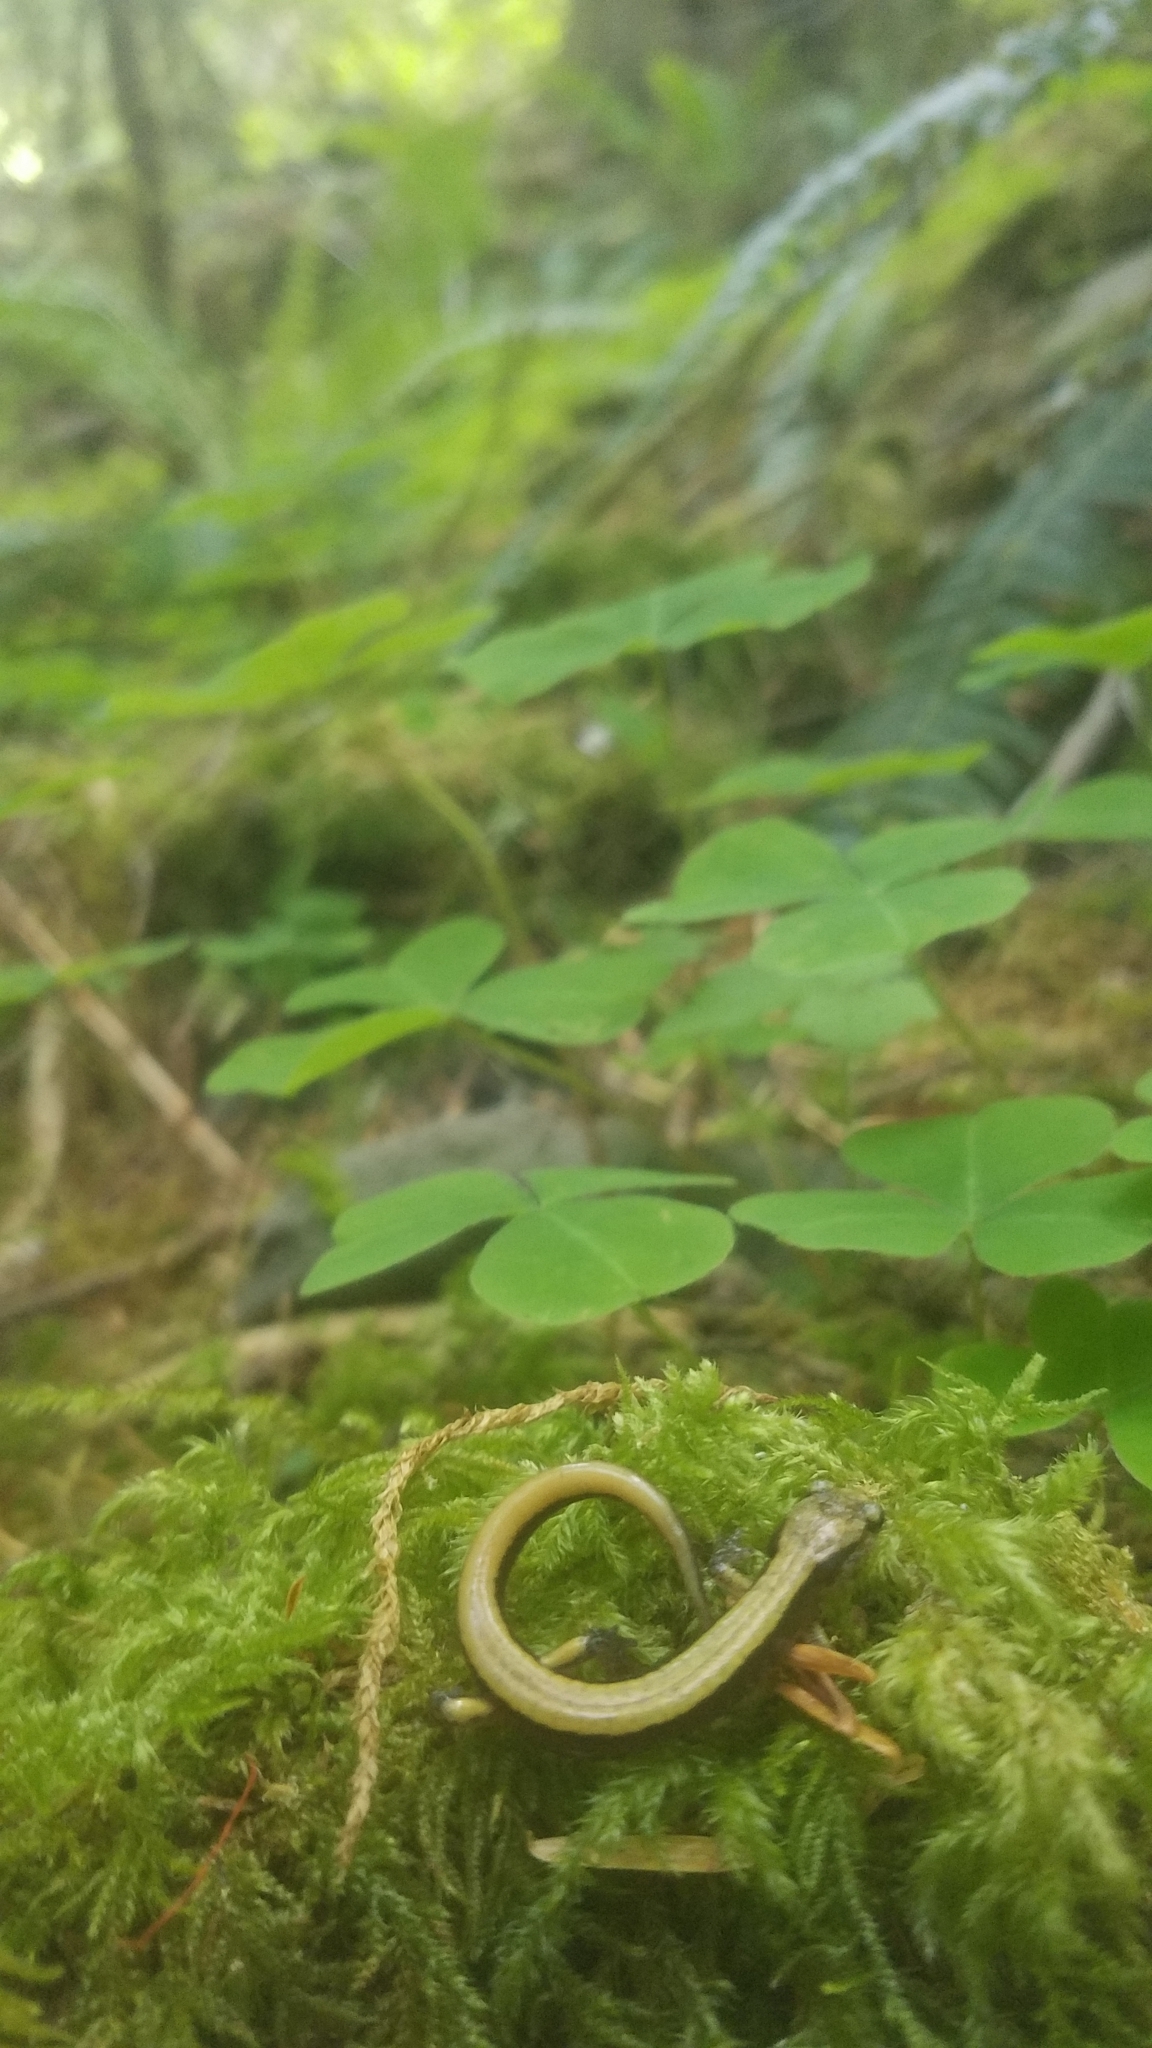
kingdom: Animalia
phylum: Chordata
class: Amphibia
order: Caudata
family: Plethodontidae
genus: Plethodon
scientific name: Plethodon vehiculum
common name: Western red-backed salamander
